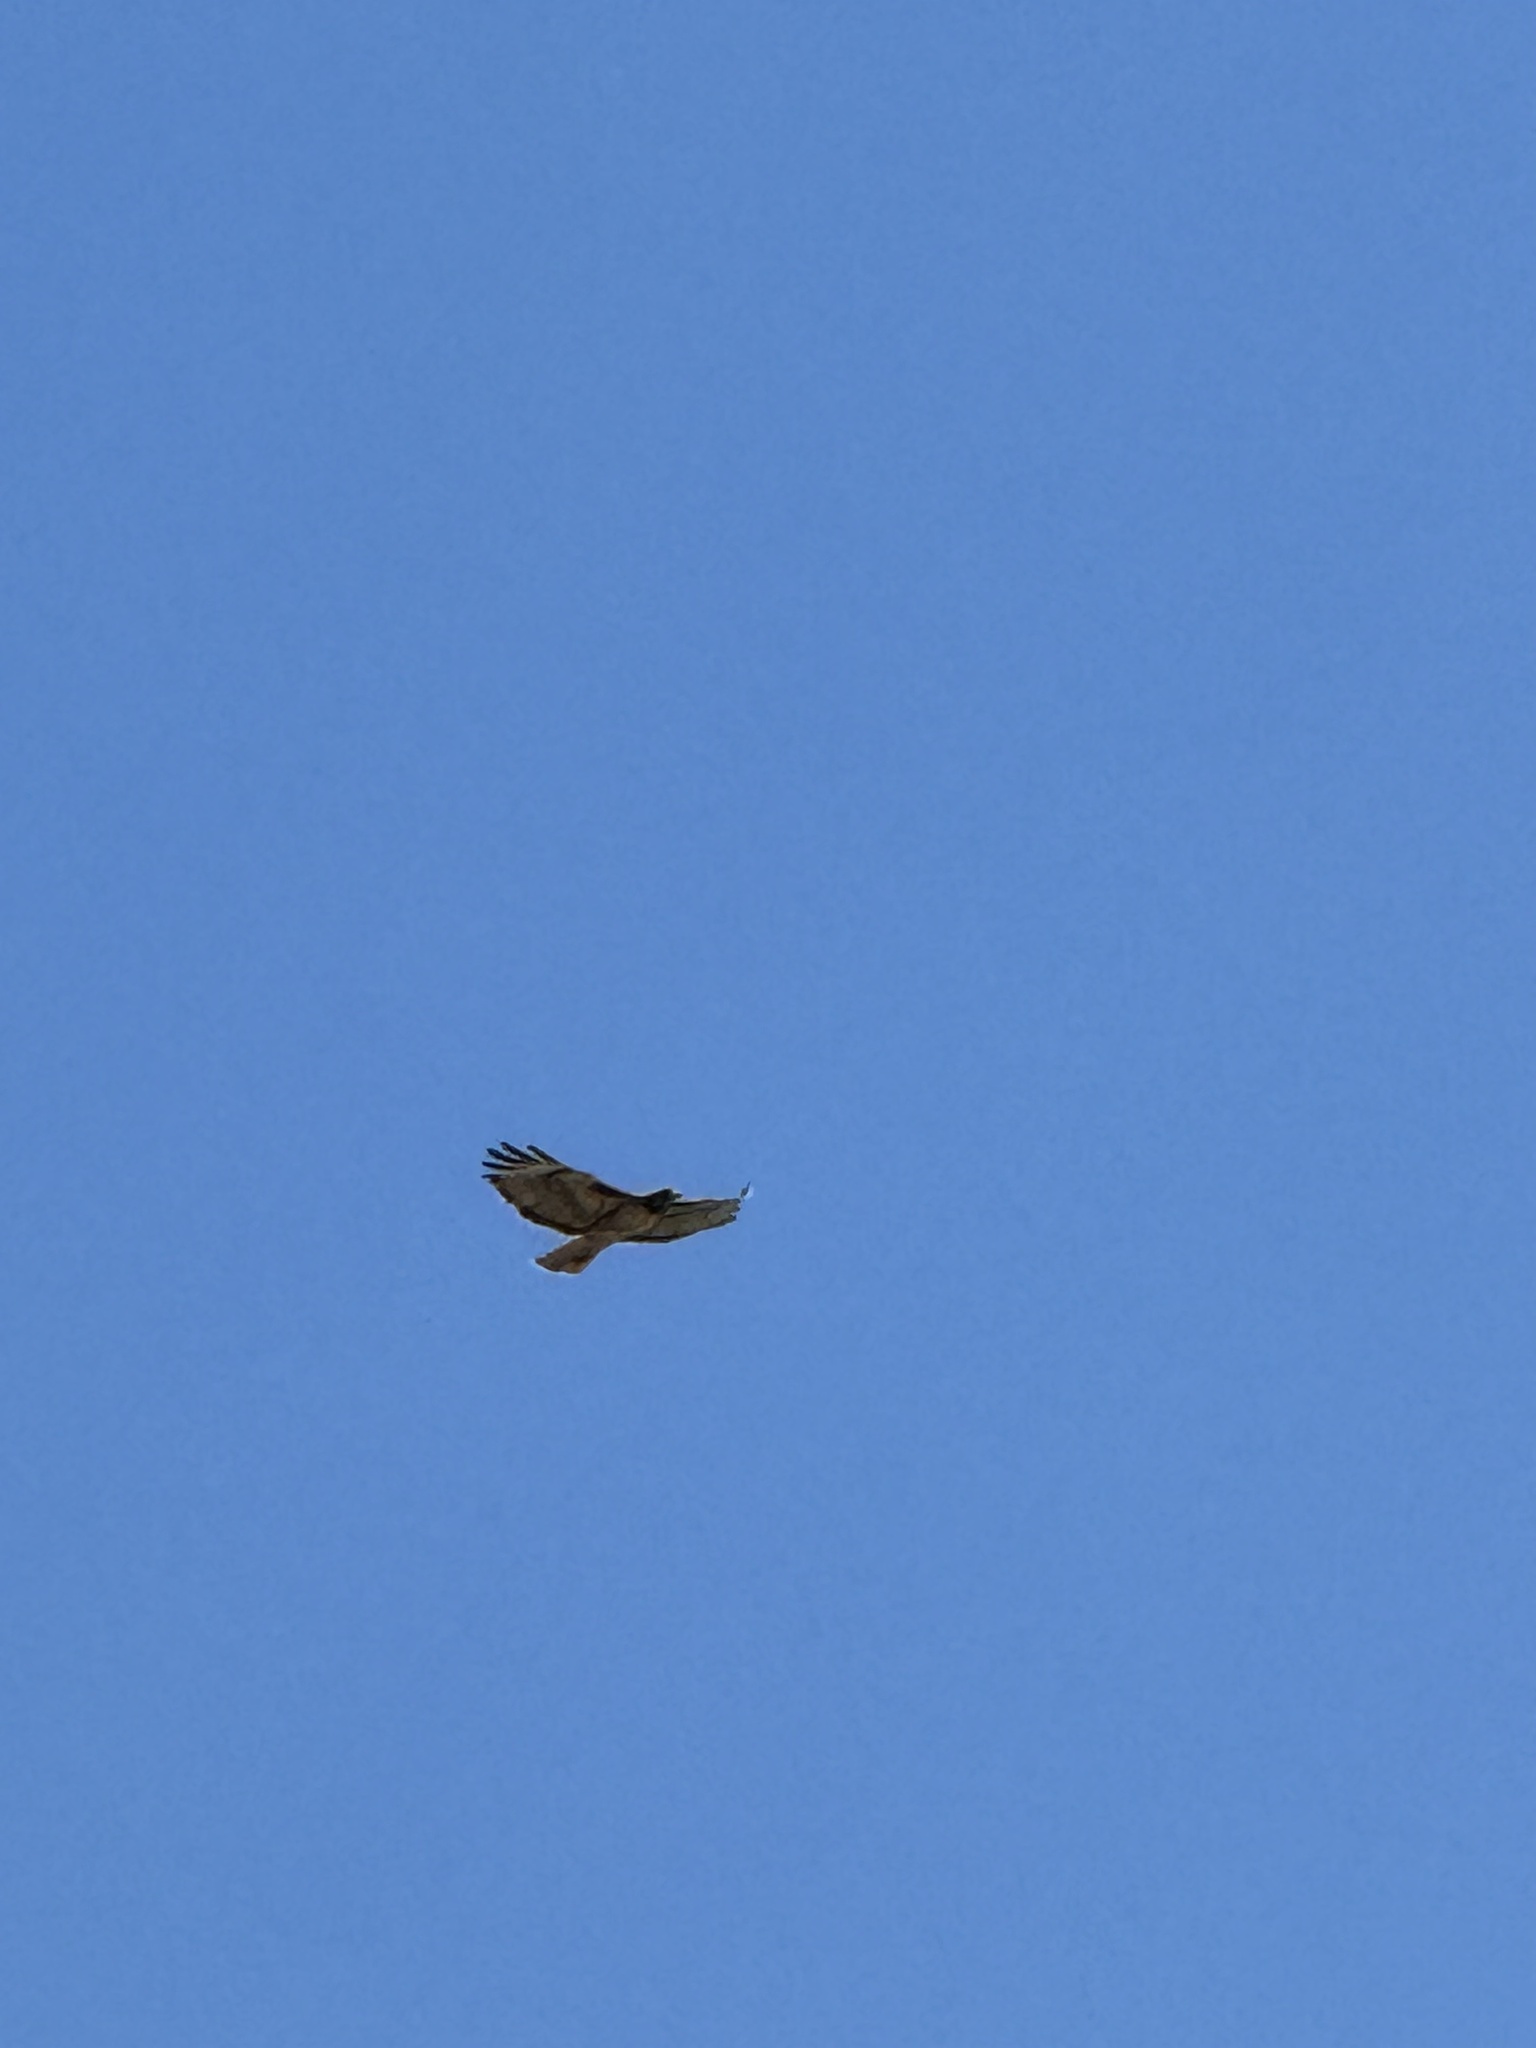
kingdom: Animalia
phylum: Chordata
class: Aves
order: Accipitriformes
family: Accipitridae
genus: Buteo
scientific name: Buteo jamaicensis
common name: Red-tailed hawk
